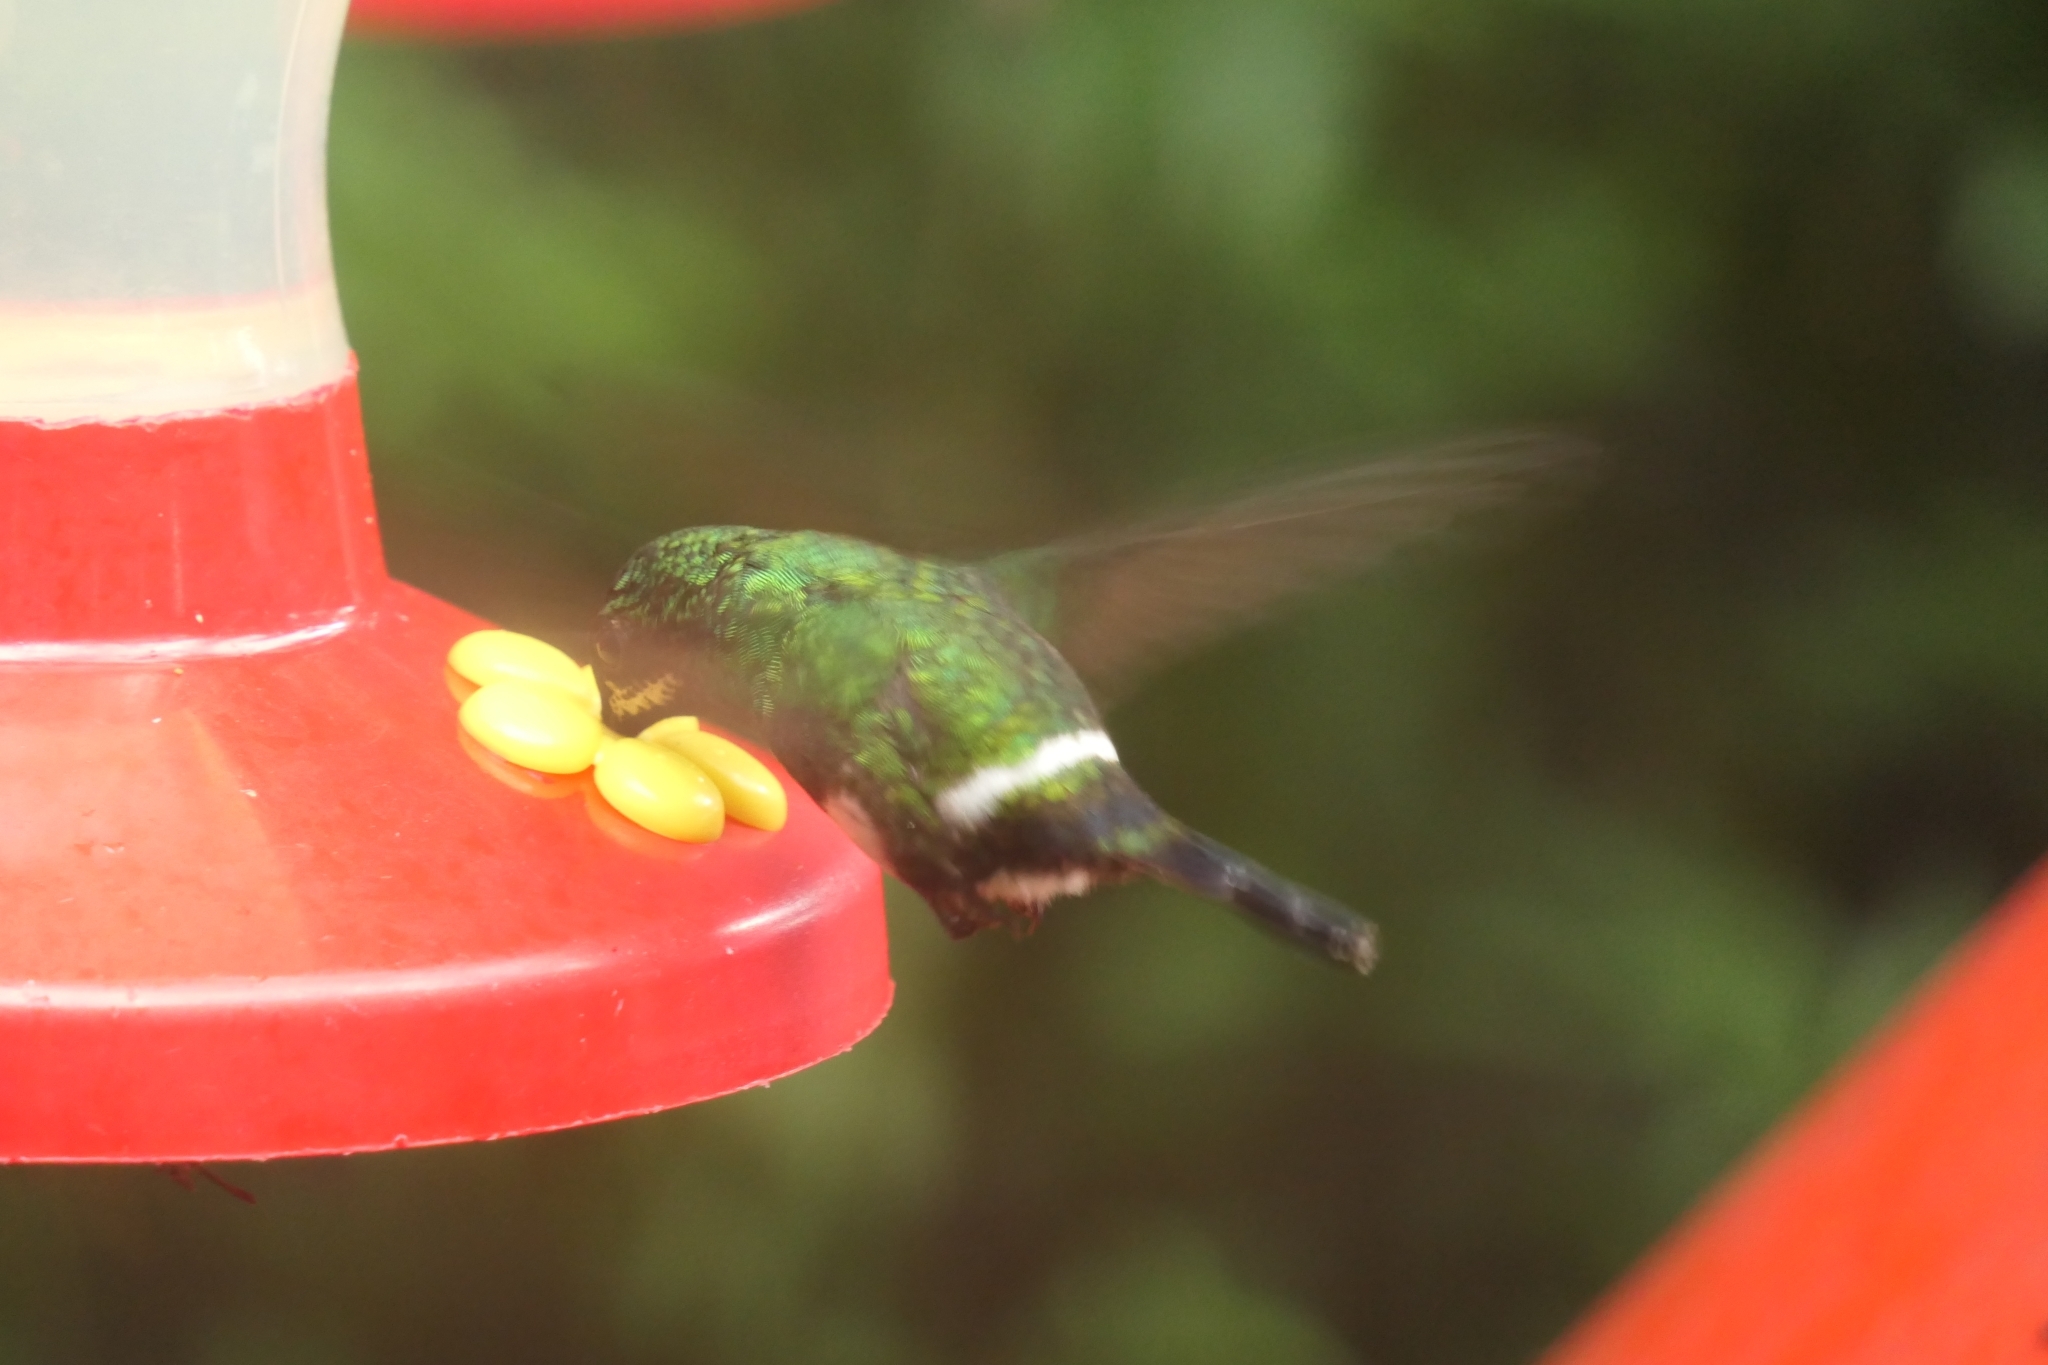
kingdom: Animalia
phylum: Chordata
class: Aves
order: Apodiformes
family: Trochilidae
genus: Discosura
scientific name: Discosura conversii
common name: Green thorntail
